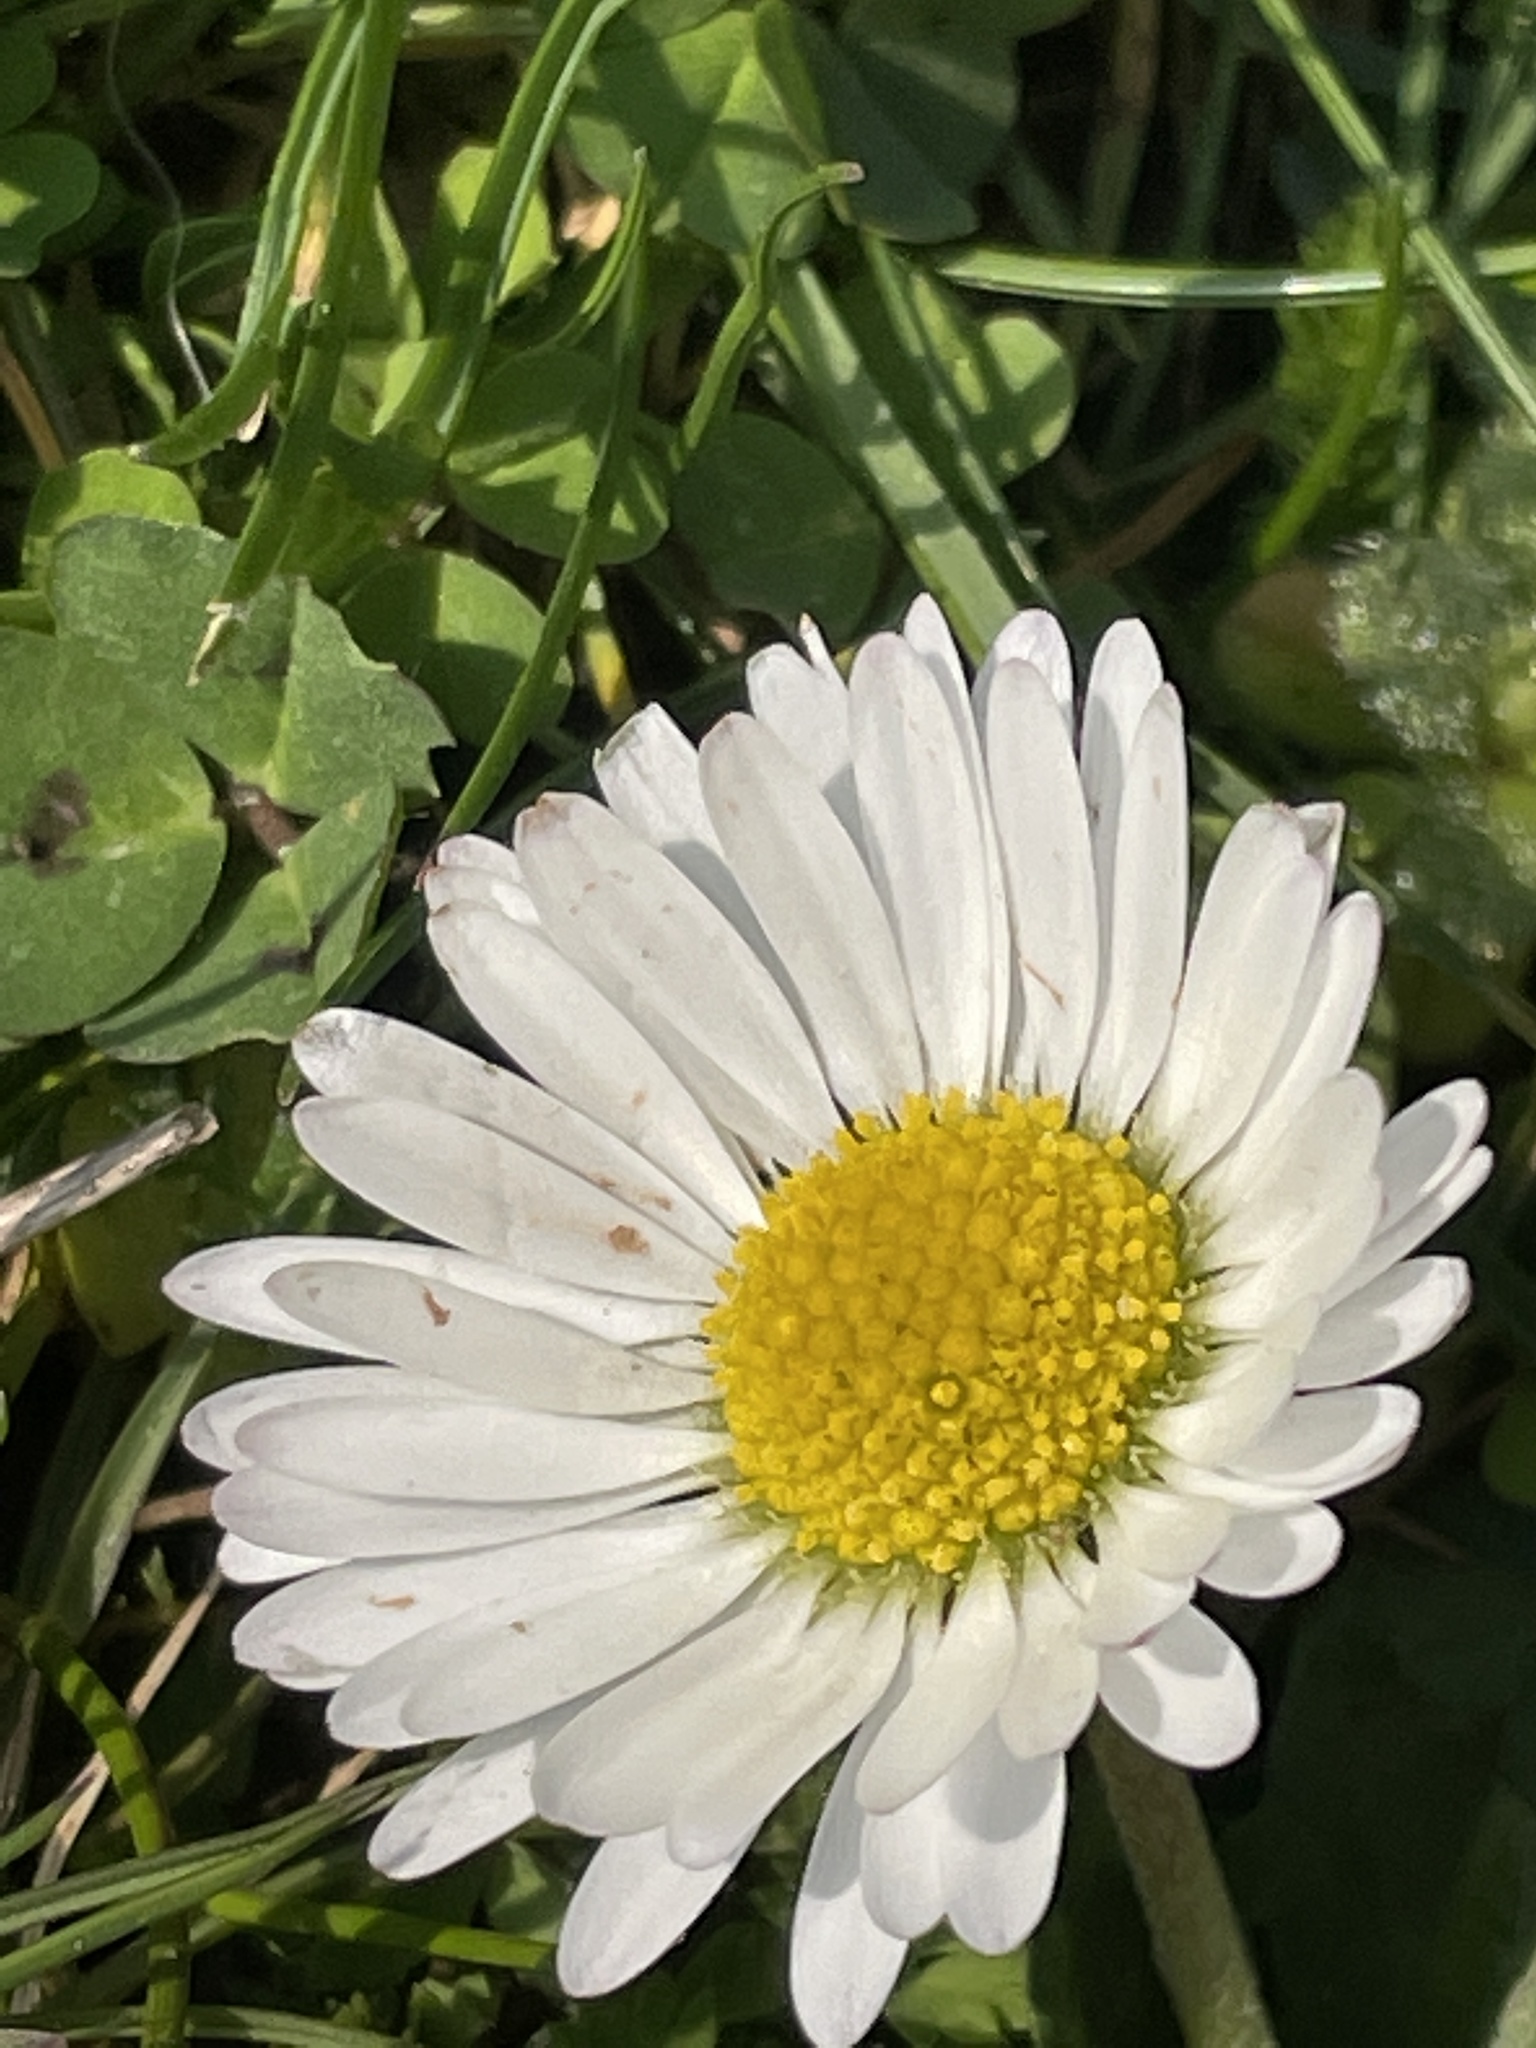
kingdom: Plantae
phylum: Tracheophyta
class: Magnoliopsida
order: Asterales
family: Asteraceae
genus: Bellis
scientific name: Bellis perennis
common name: Lawndaisy
